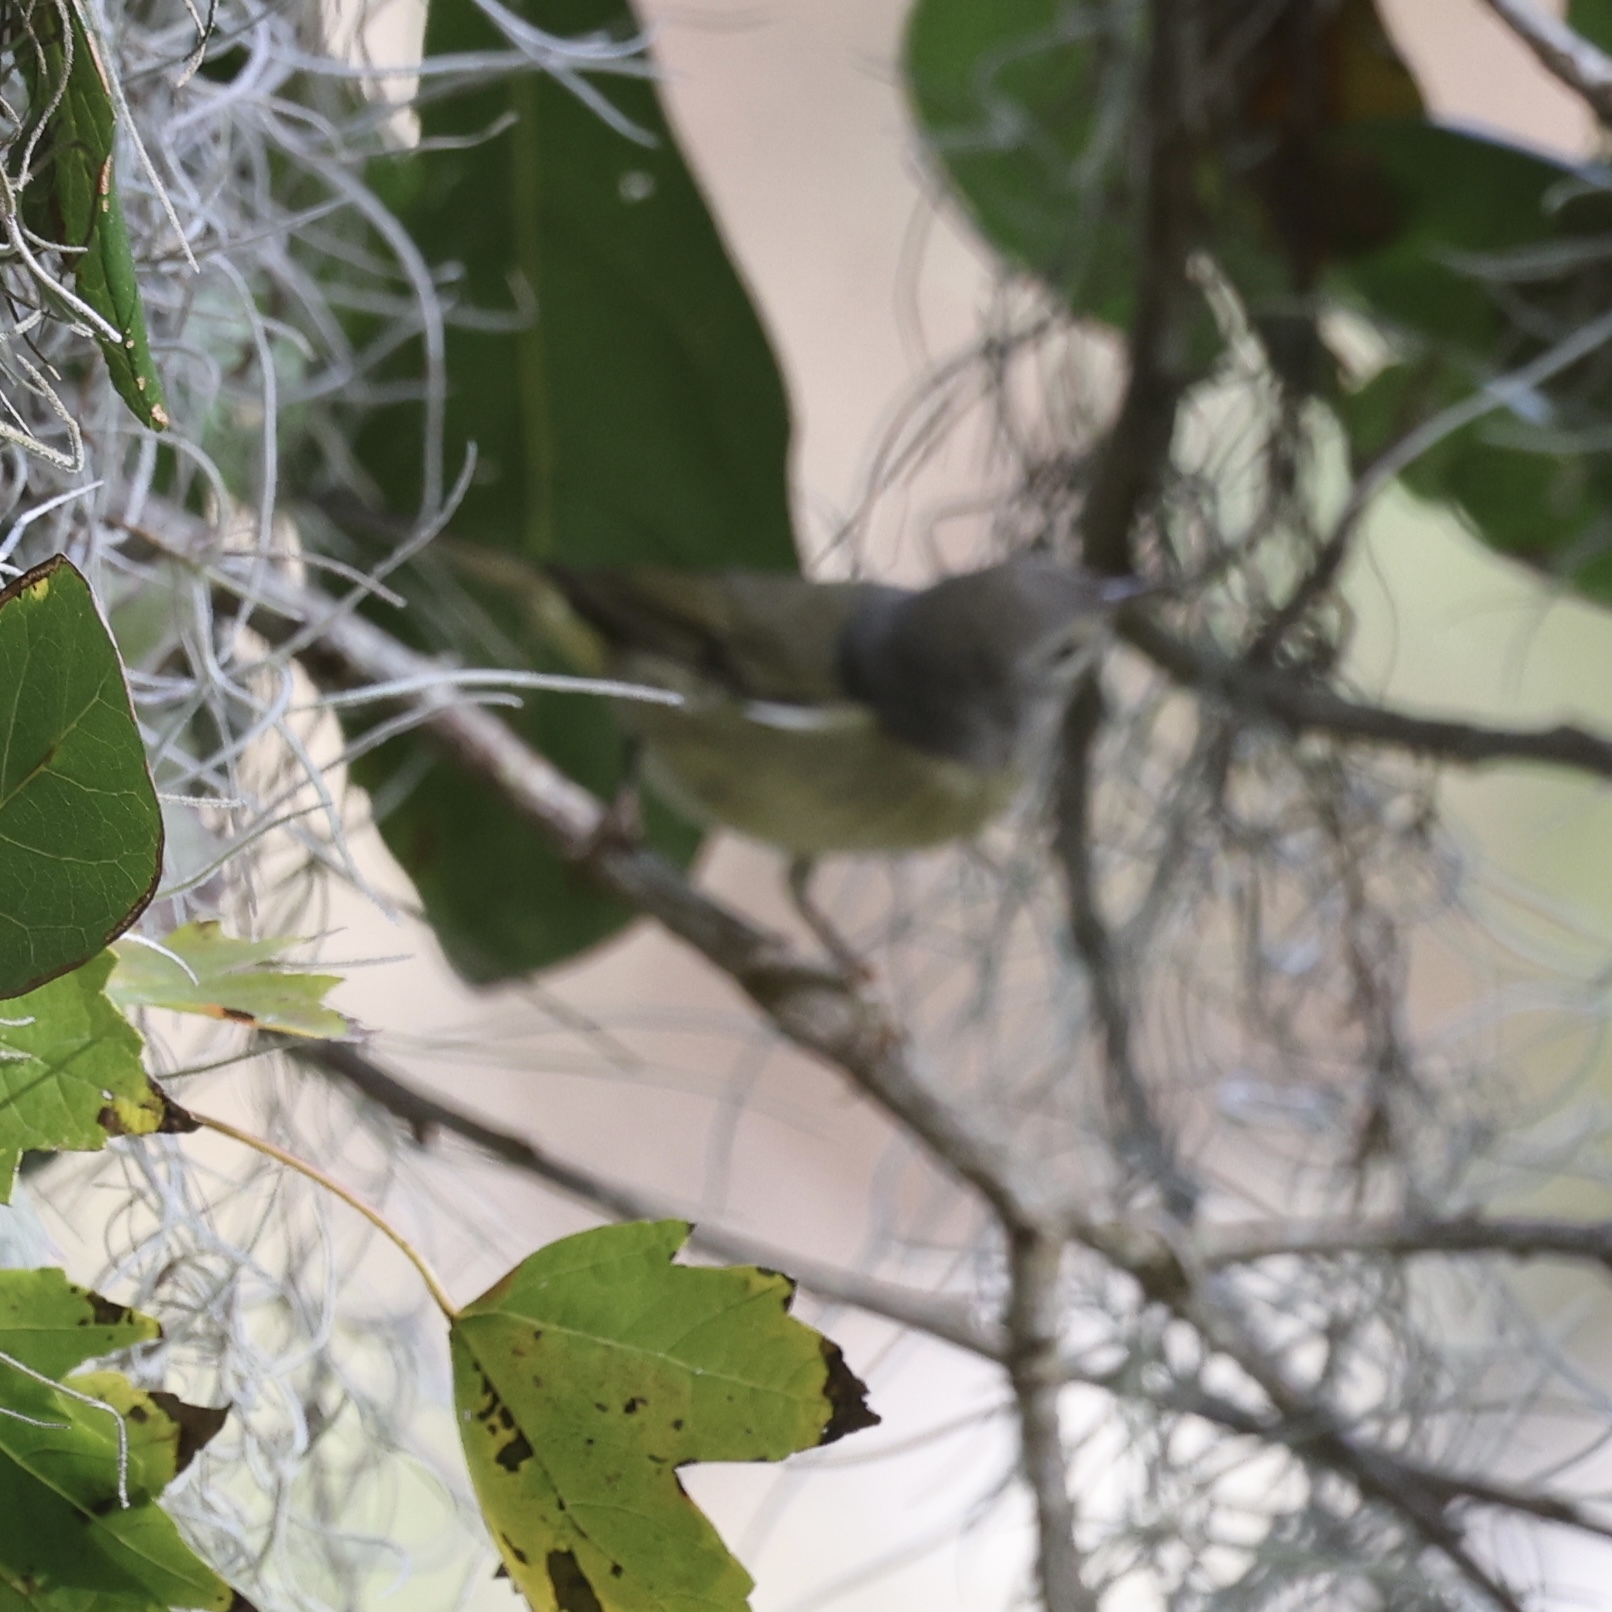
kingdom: Animalia
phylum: Chordata
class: Aves
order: Passeriformes
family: Parulidae
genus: Leiothlypis
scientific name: Leiothlypis celata
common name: Orange-crowned warbler
